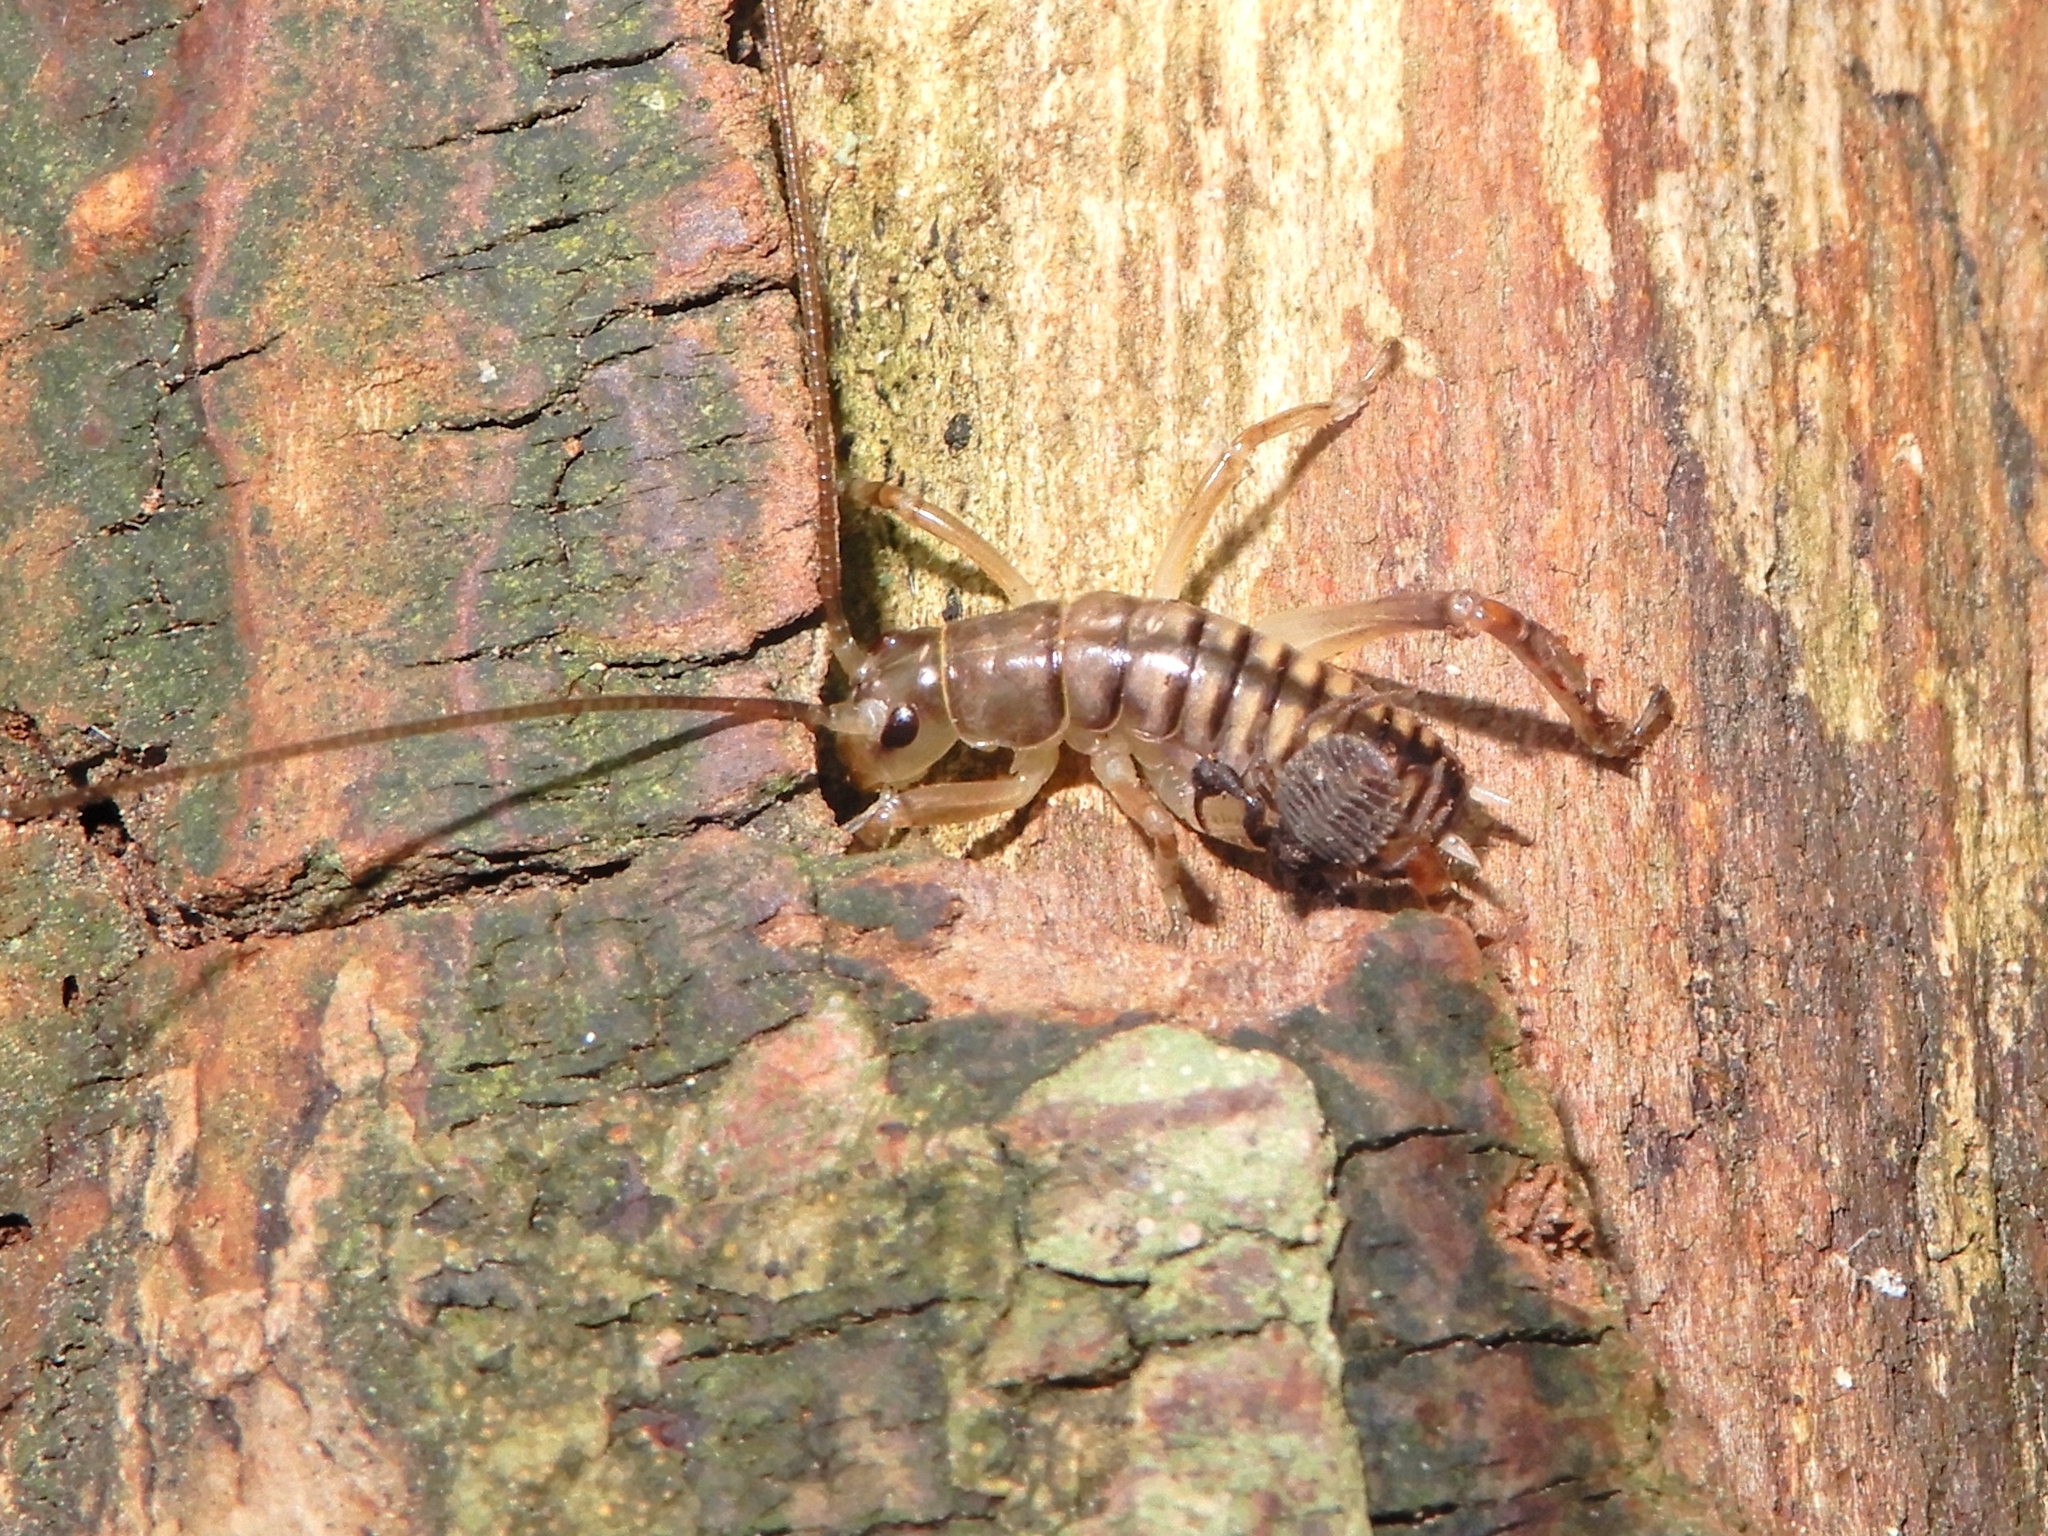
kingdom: Animalia
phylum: Arthropoda
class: Insecta
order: Orthoptera
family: Anostostomatidae
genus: Hemideina
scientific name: Hemideina crassidens
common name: Wellington tree weta
